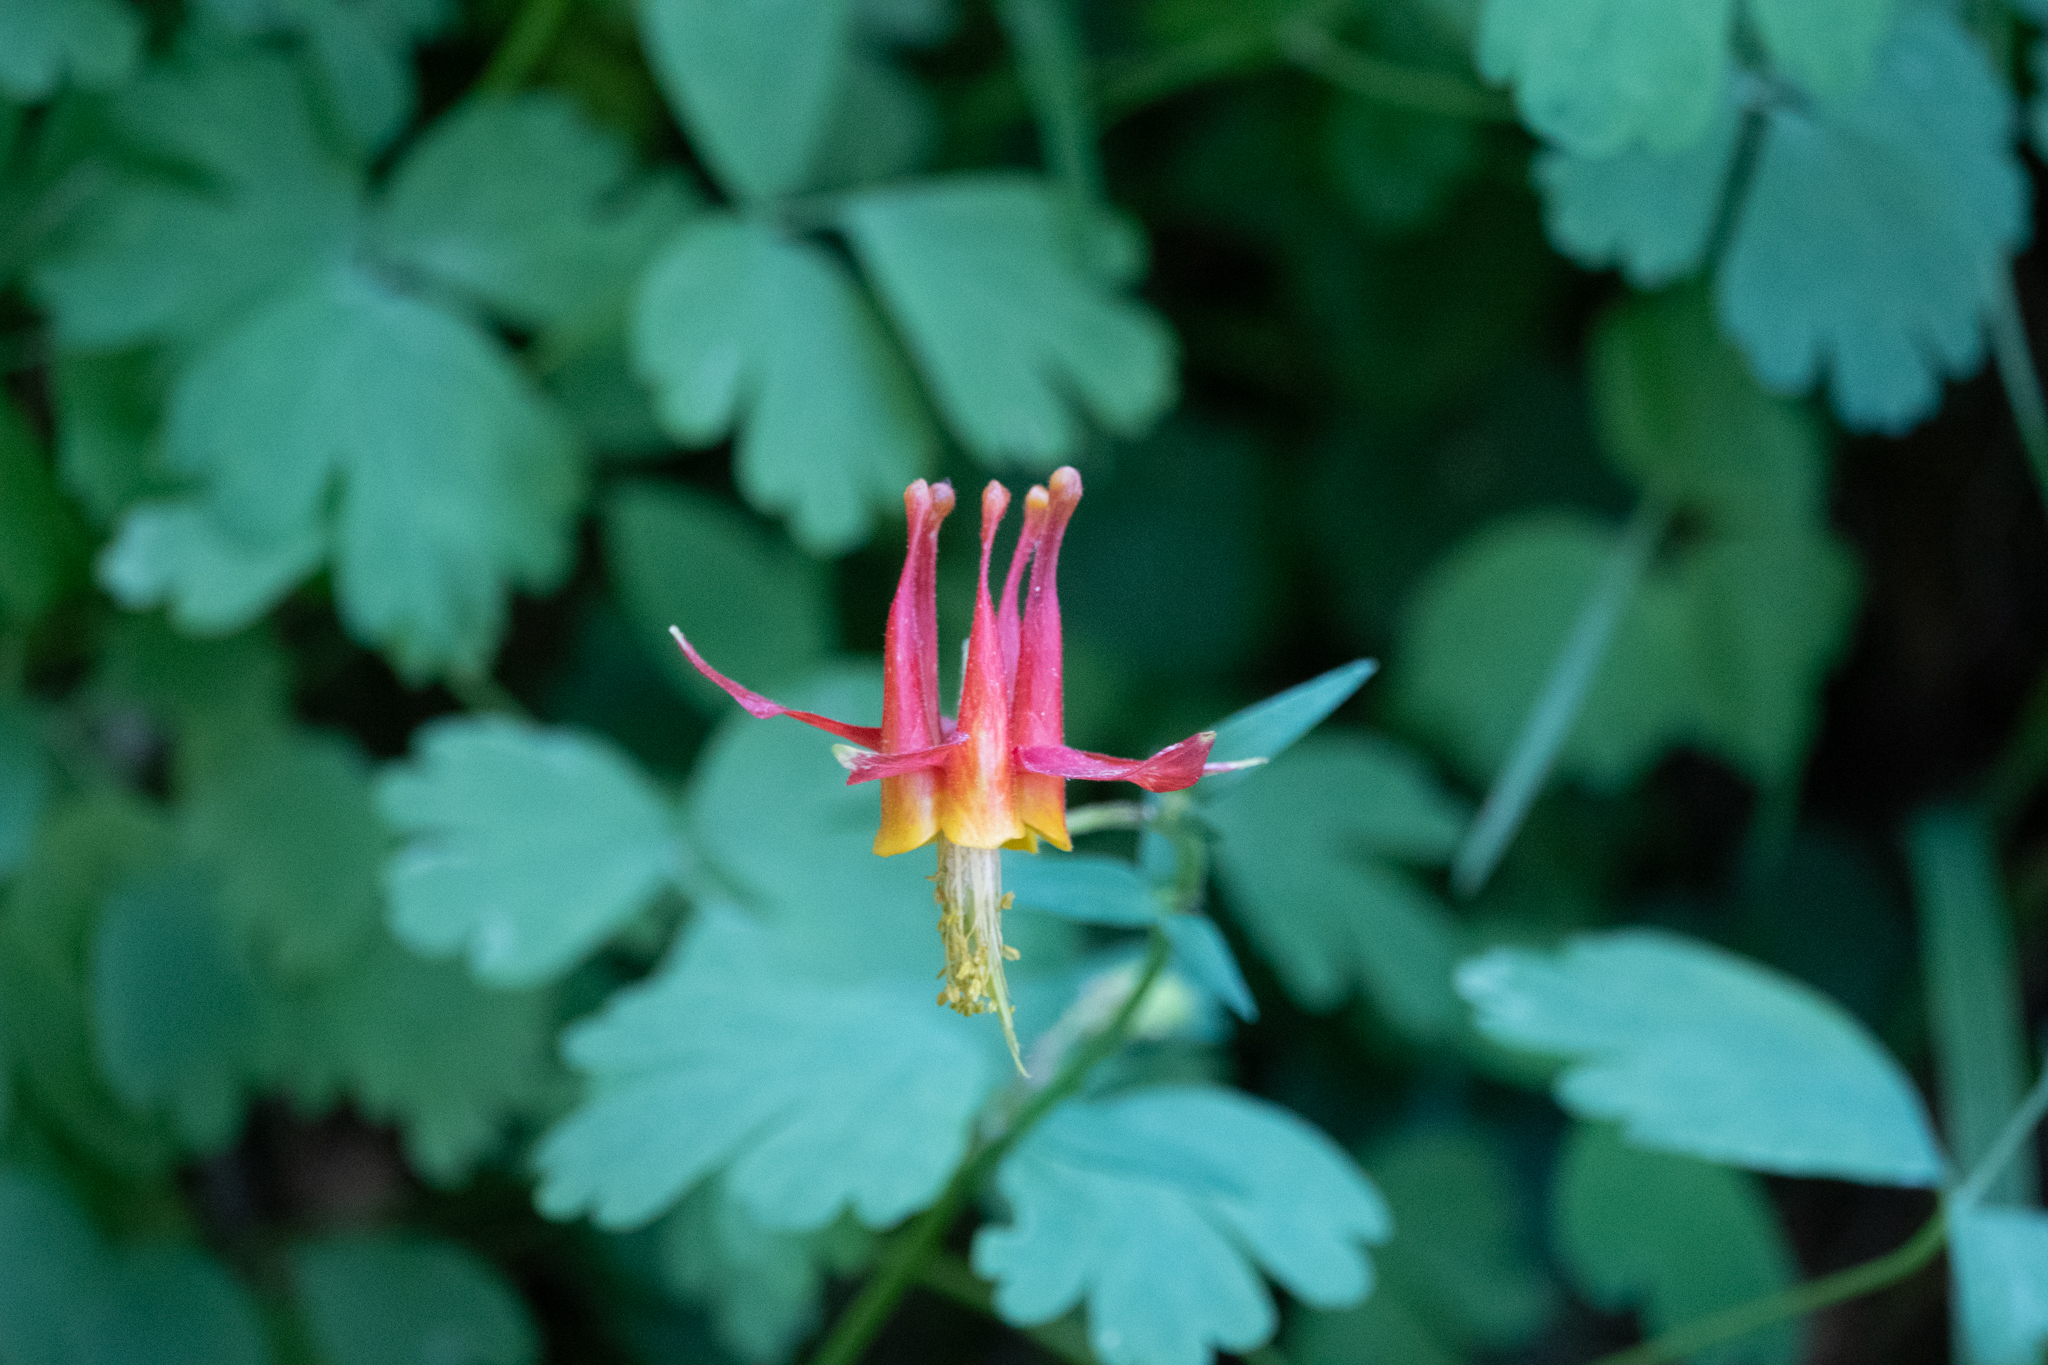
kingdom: Plantae
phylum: Tracheophyta
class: Magnoliopsida
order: Ranunculales
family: Ranunculaceae
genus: Aquilegia
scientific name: Aquilegia formosa
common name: Sitka columbine
